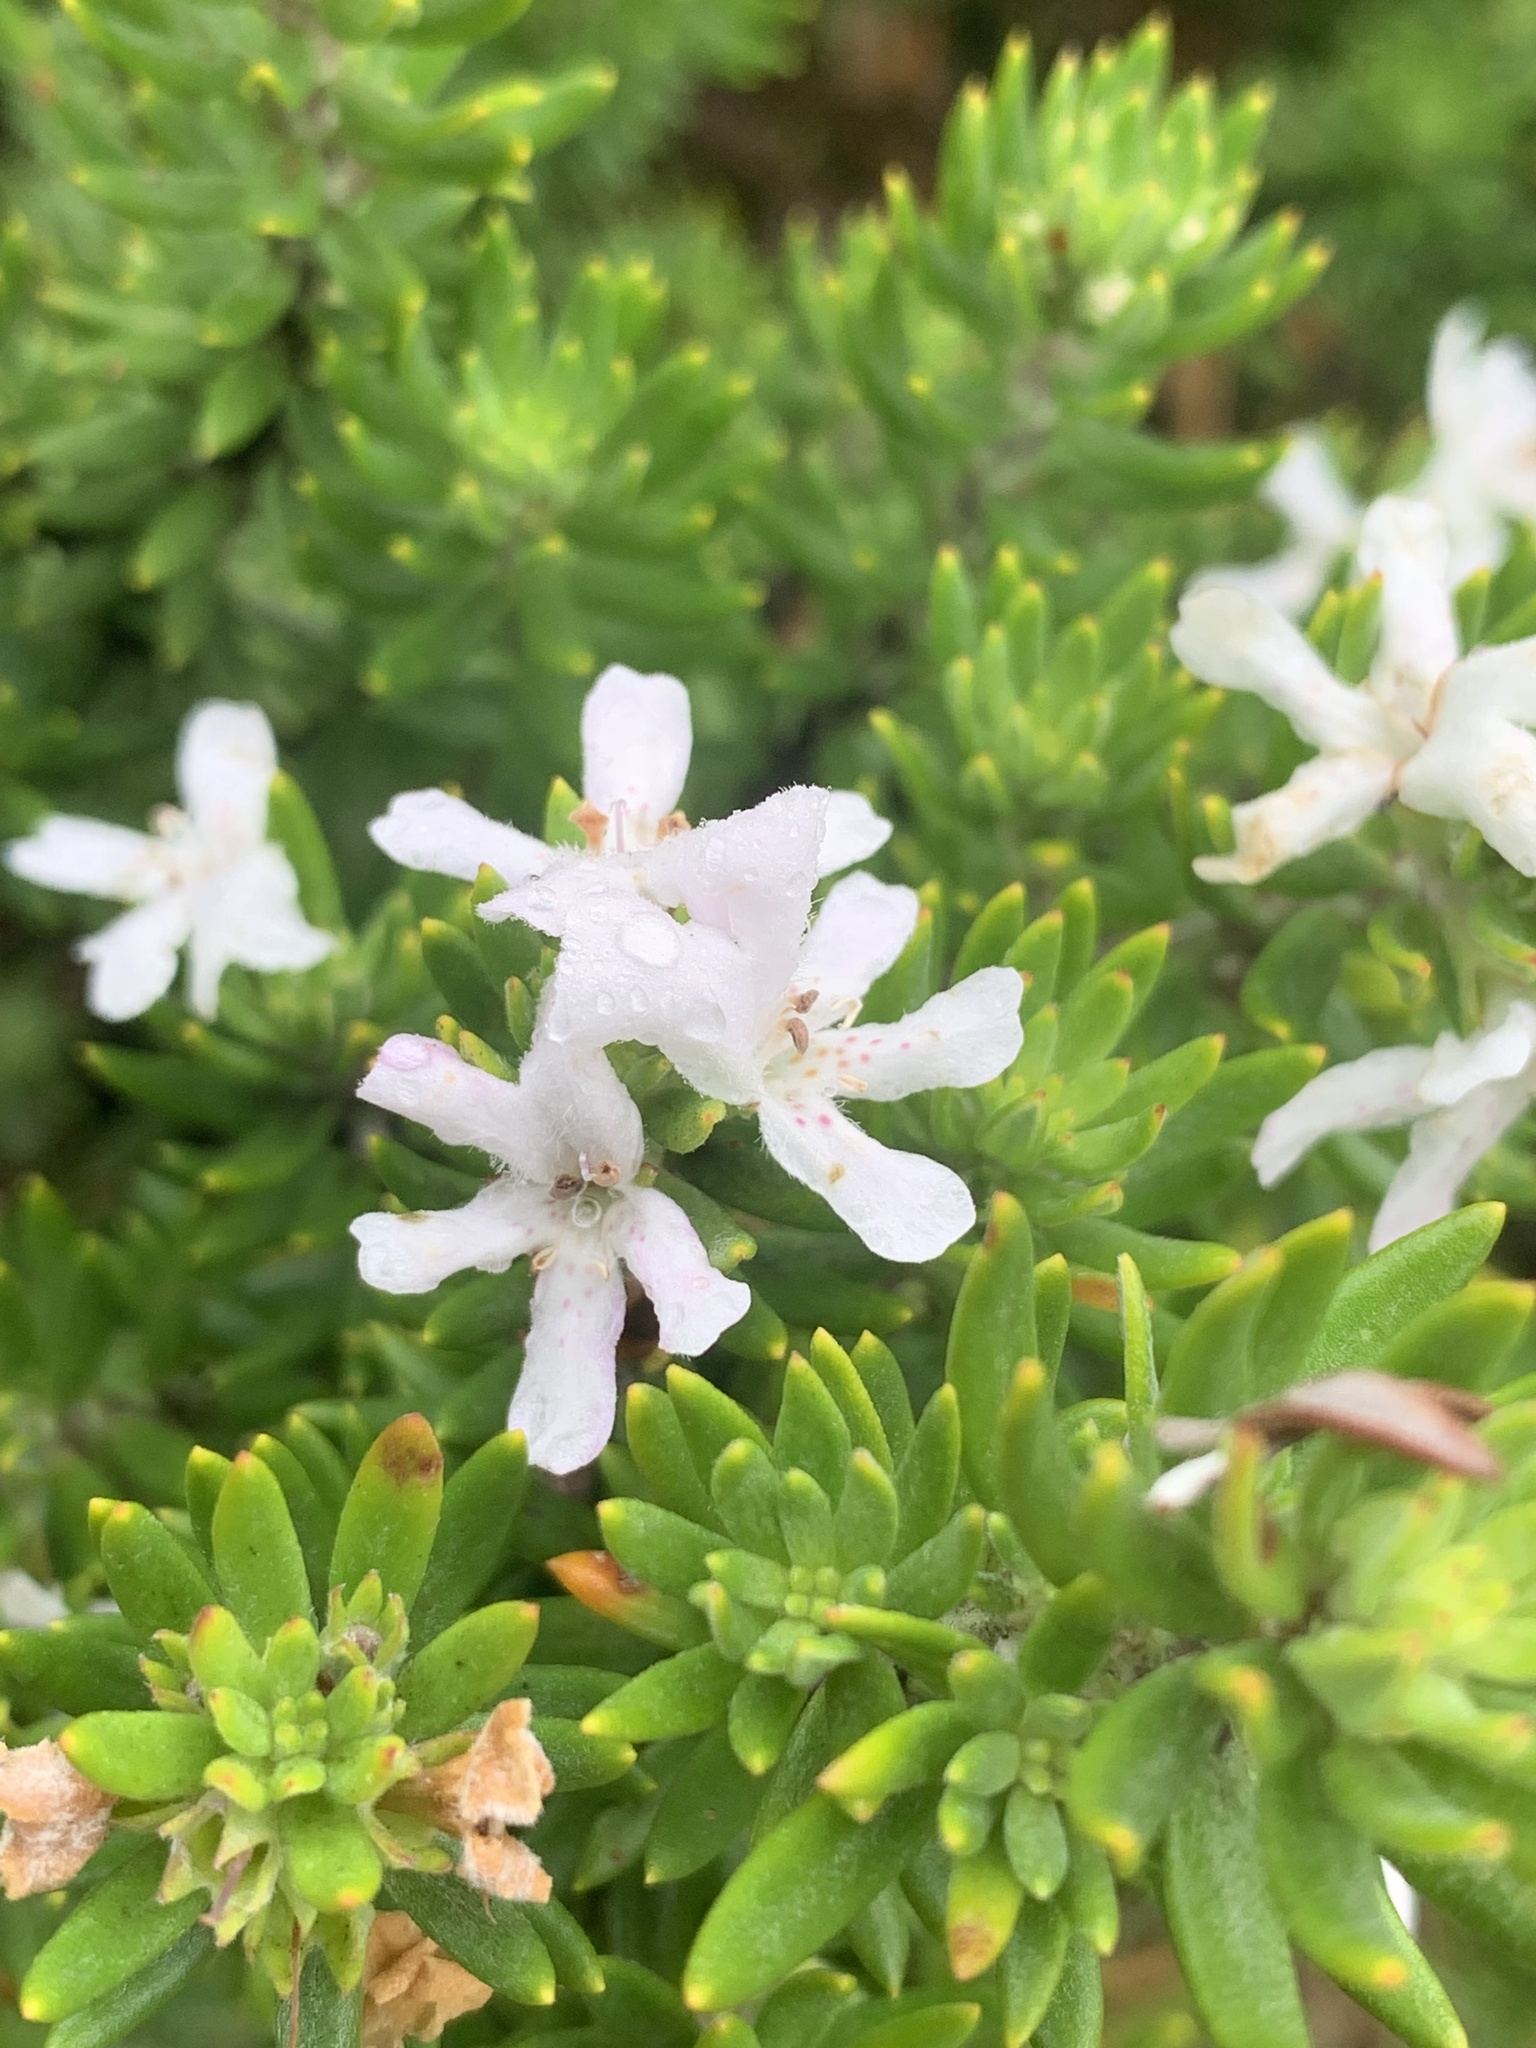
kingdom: Plantae
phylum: Tracheophyta
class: Magnoliopsida
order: Lamiales
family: Lamiaceae
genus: Westringia
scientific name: Westringia fruticosa
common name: Coastal-rosemary
